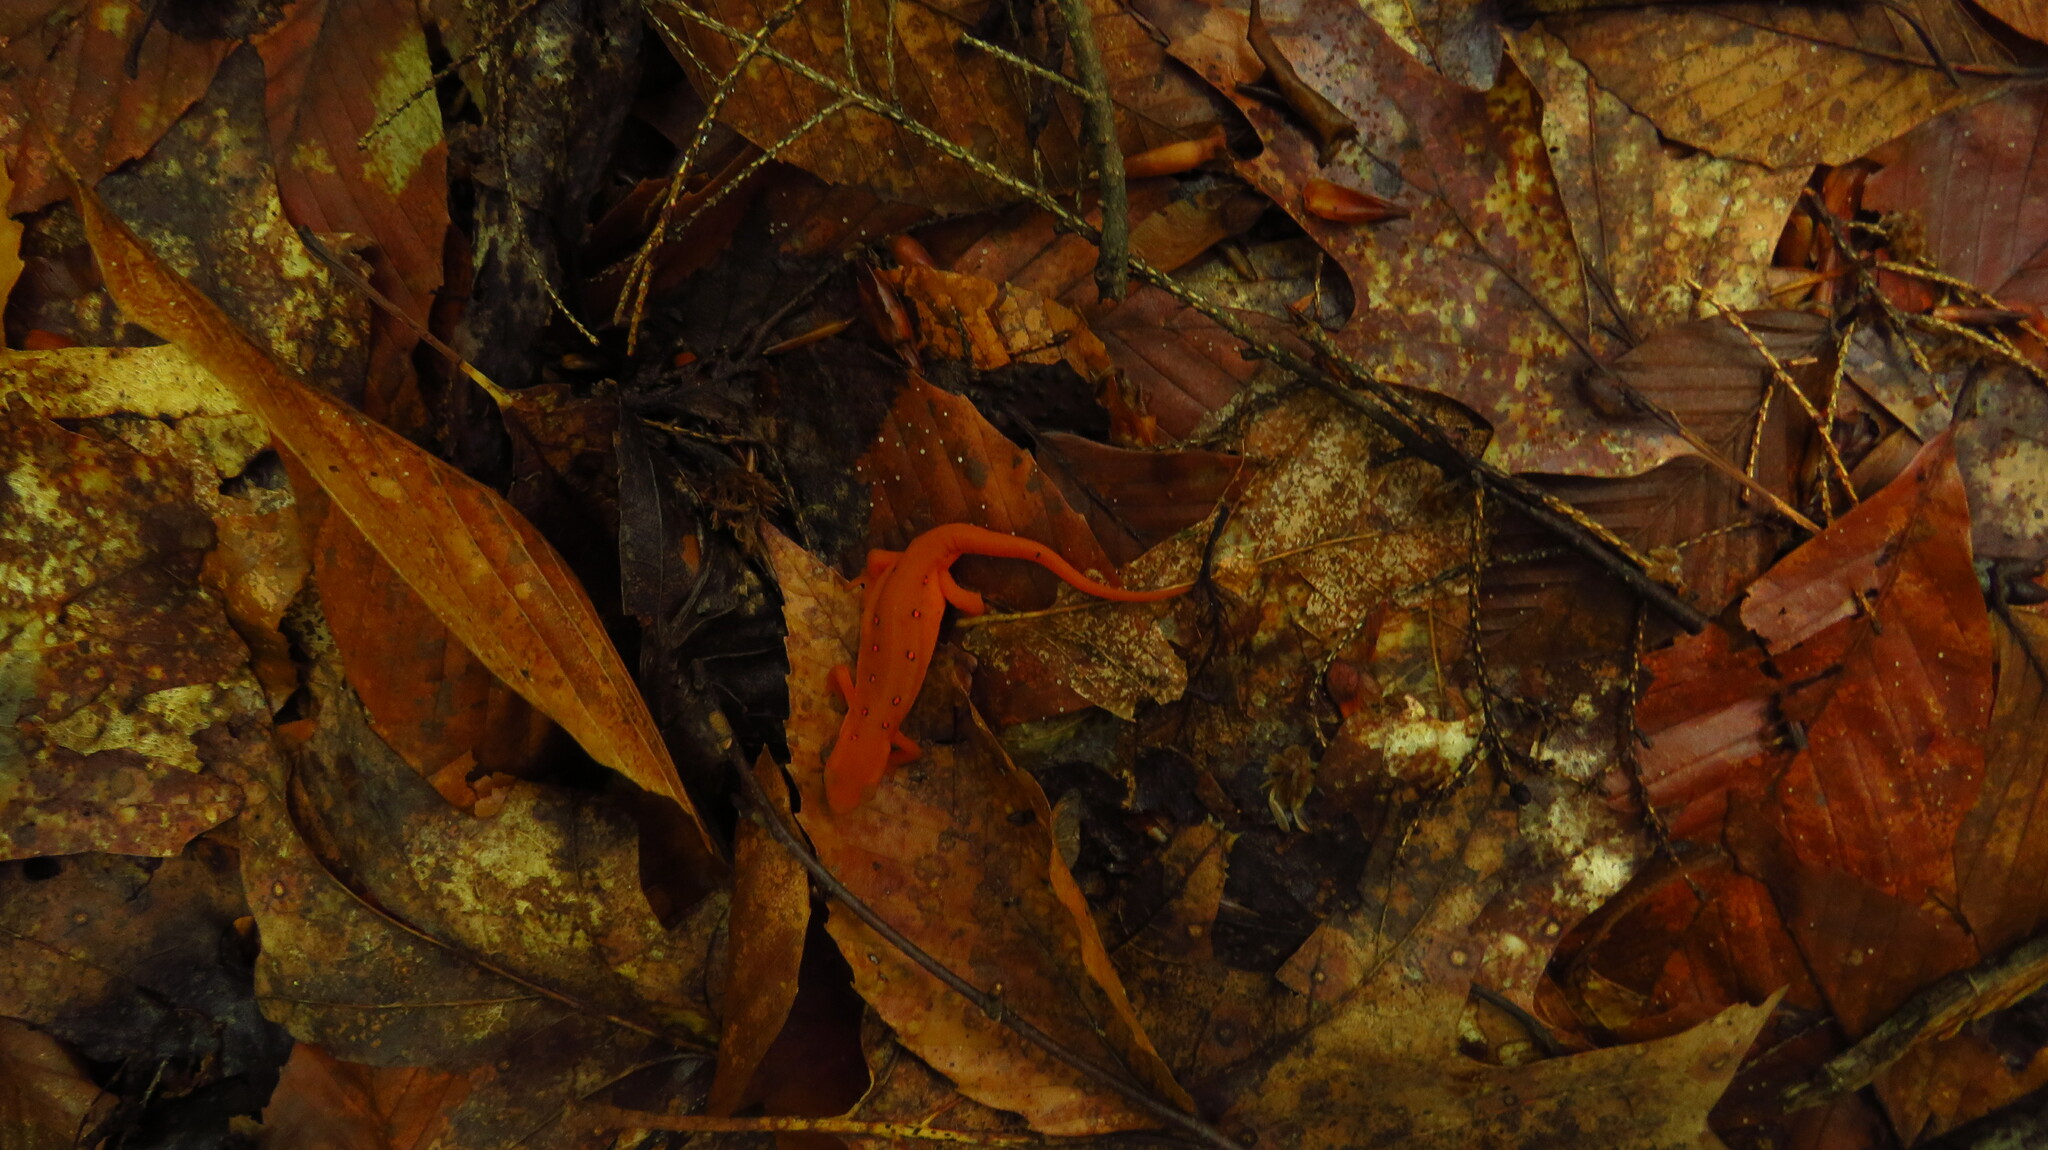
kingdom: Animalia
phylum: Chordata
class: Amphibia
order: Caudata
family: Salamandridae
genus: Notophthalmus
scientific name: Notophthalmus viridescens
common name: Eastern newt
